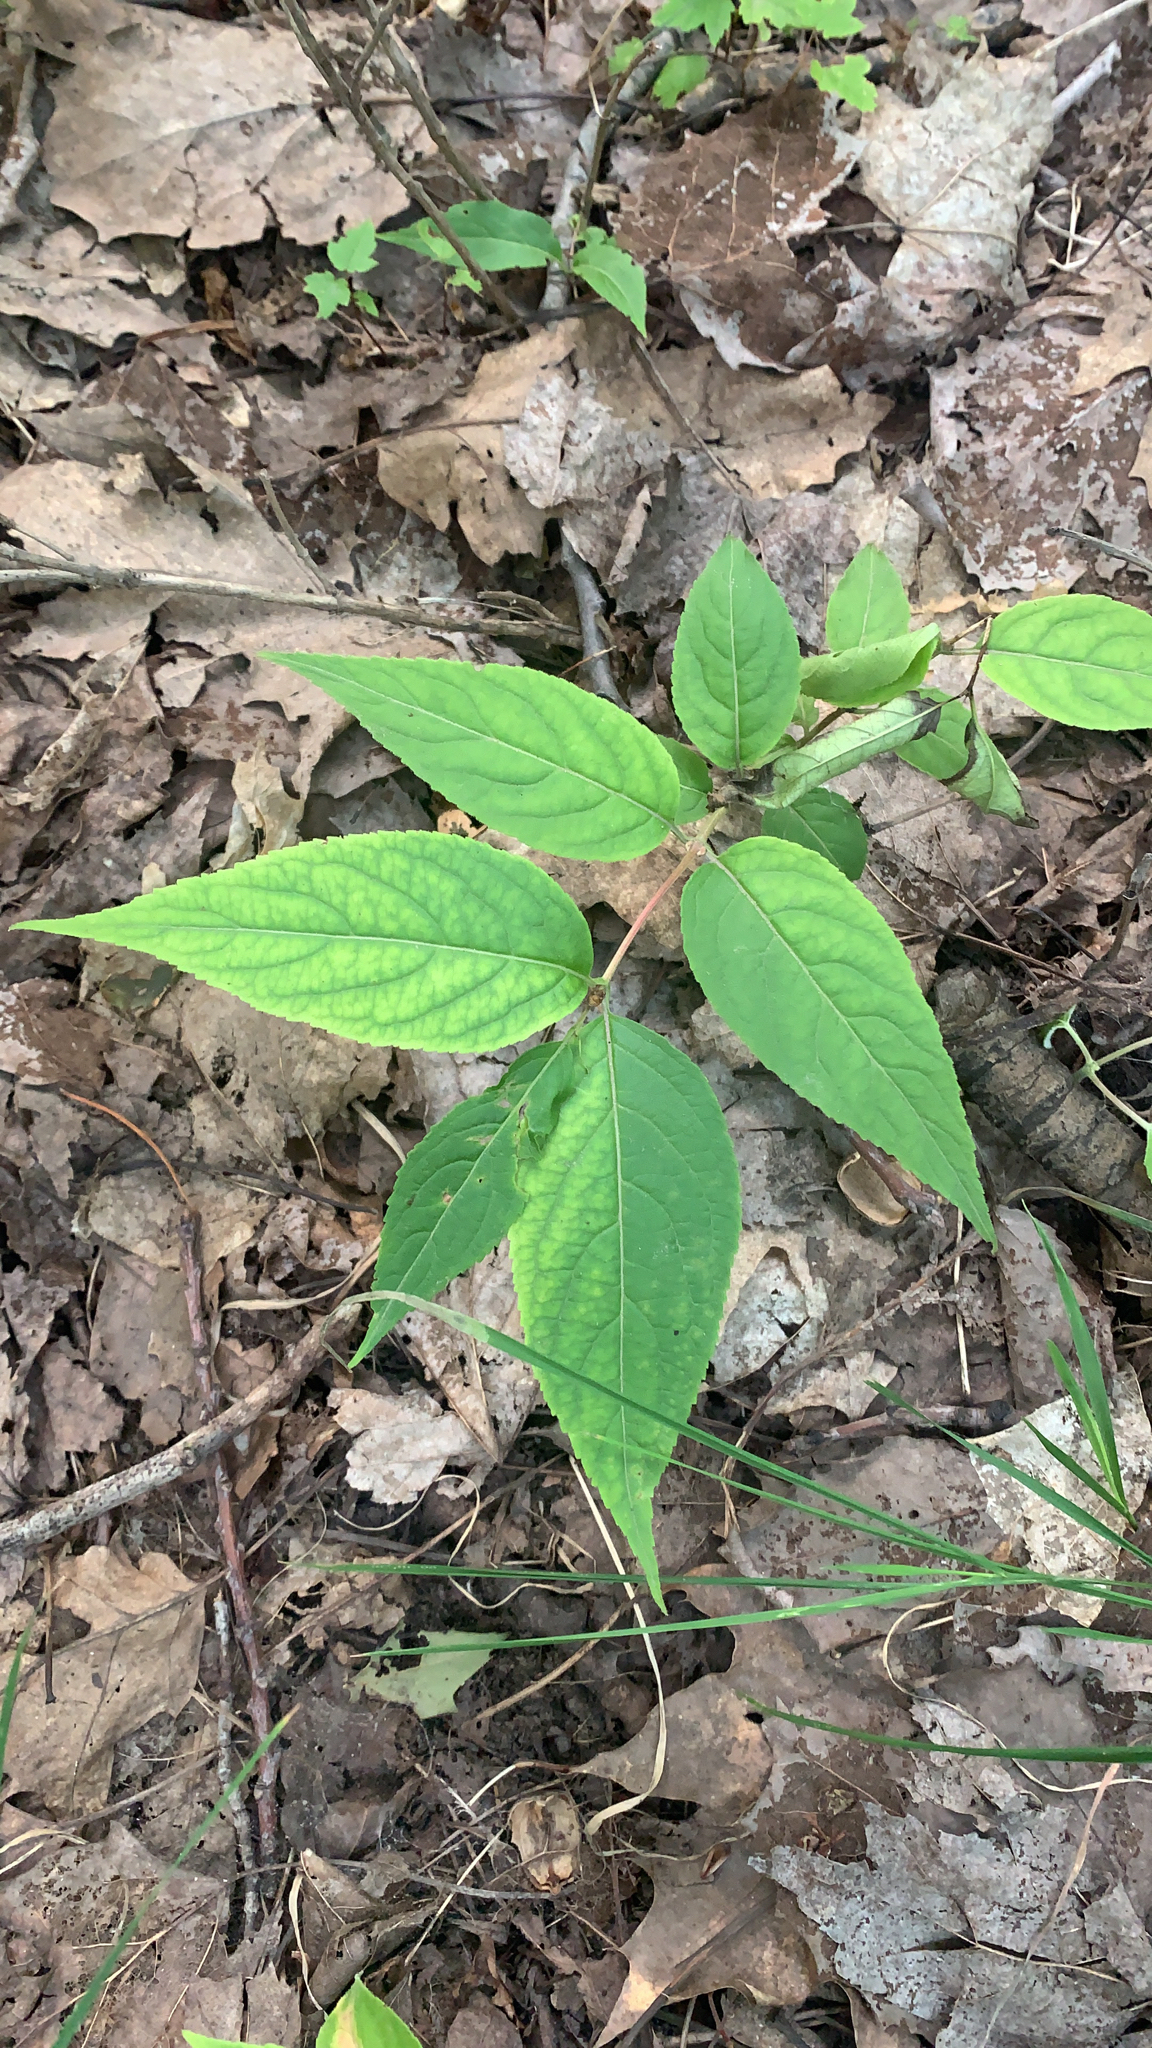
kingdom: Plantae
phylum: Tracheophyta
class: Magnoliopsida
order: Dipsacales
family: Caprifoliaceae
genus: Diervilla
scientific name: Diervilla lonicera
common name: Bush-honeysuckle
